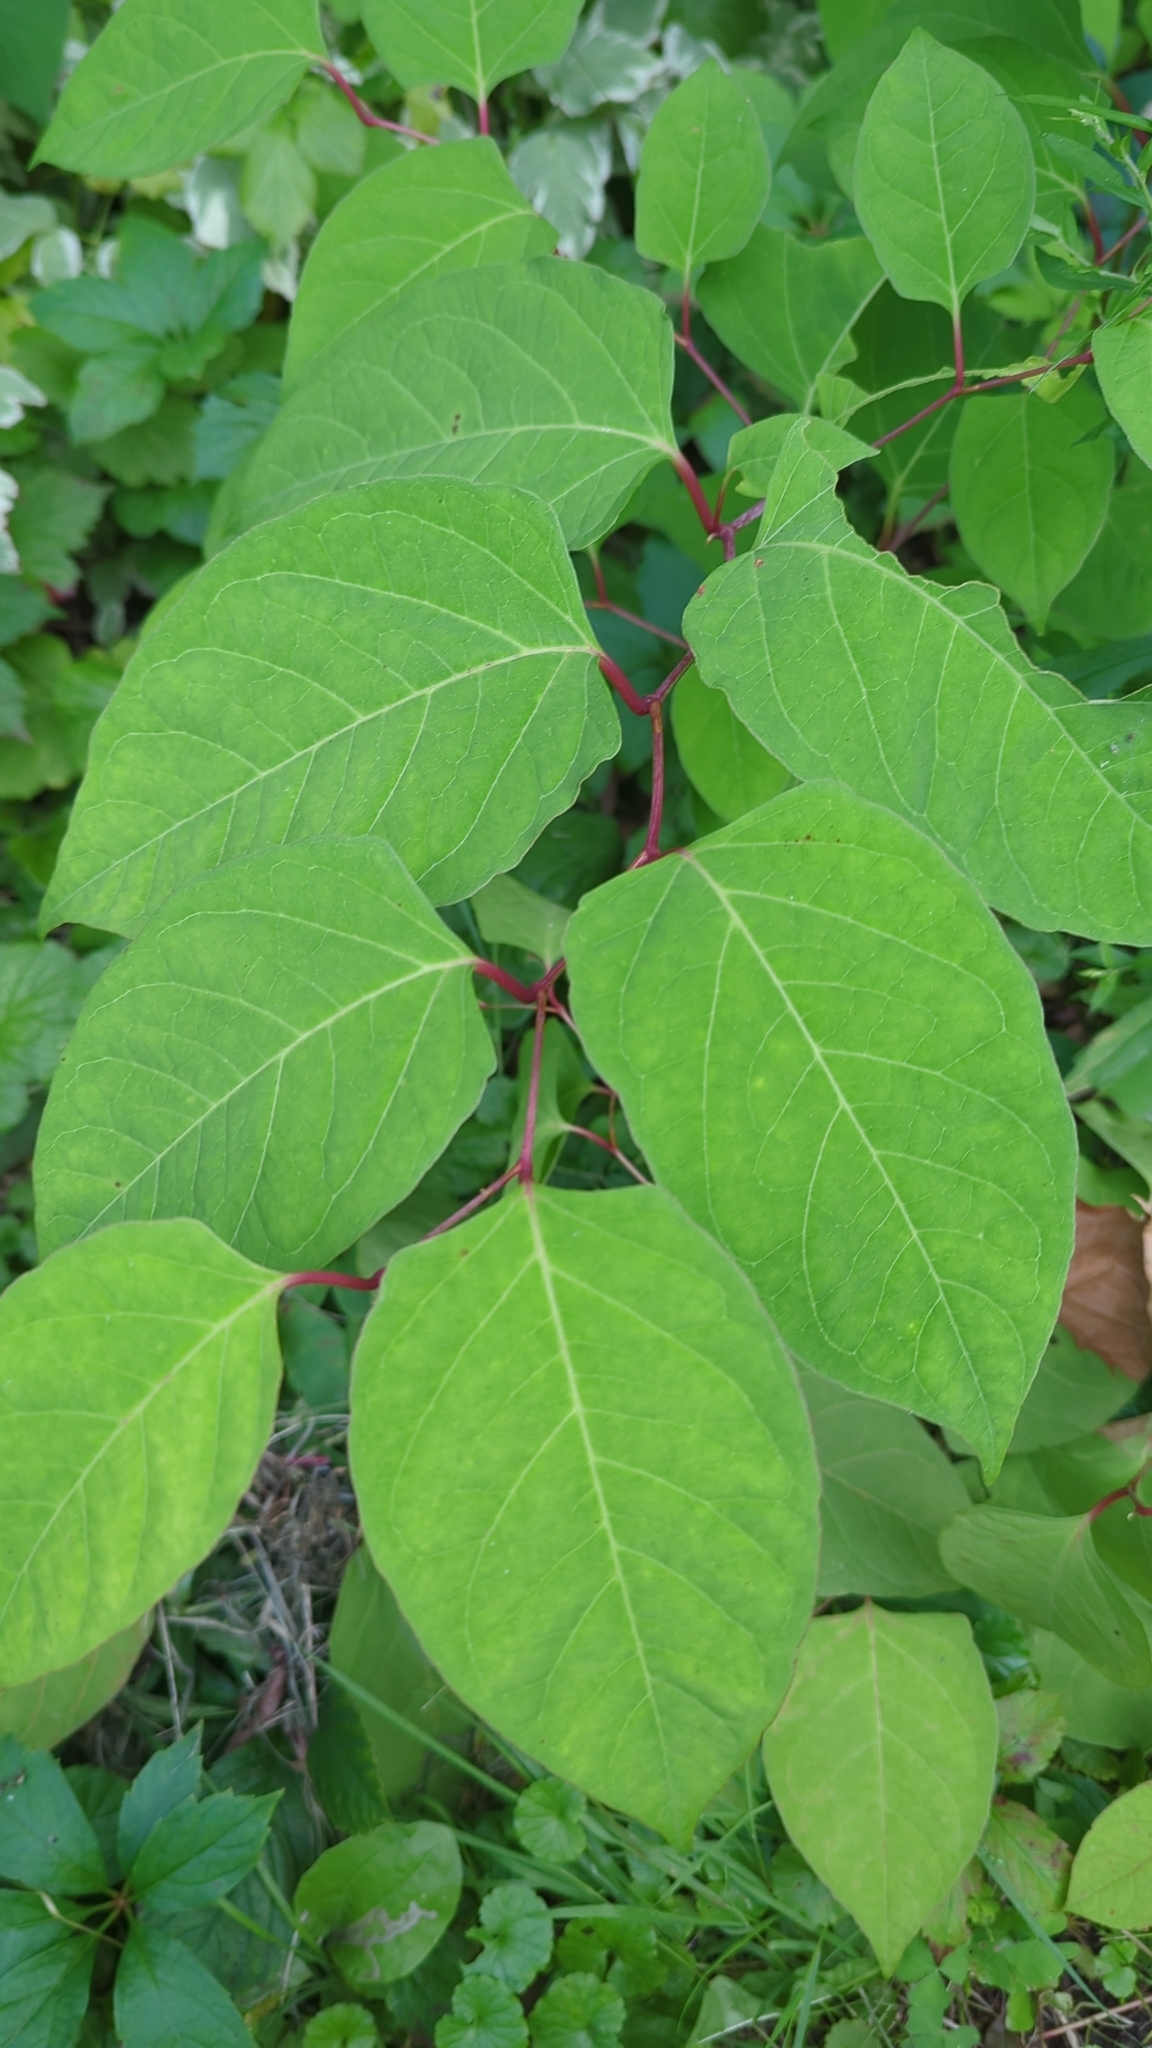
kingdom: Plantae
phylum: Tracheophyta
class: Magnoliopsida
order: Caryophyllales
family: Polygonaceae
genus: Reynoutria
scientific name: Reynoutria japonica
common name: Japanese knotweed
